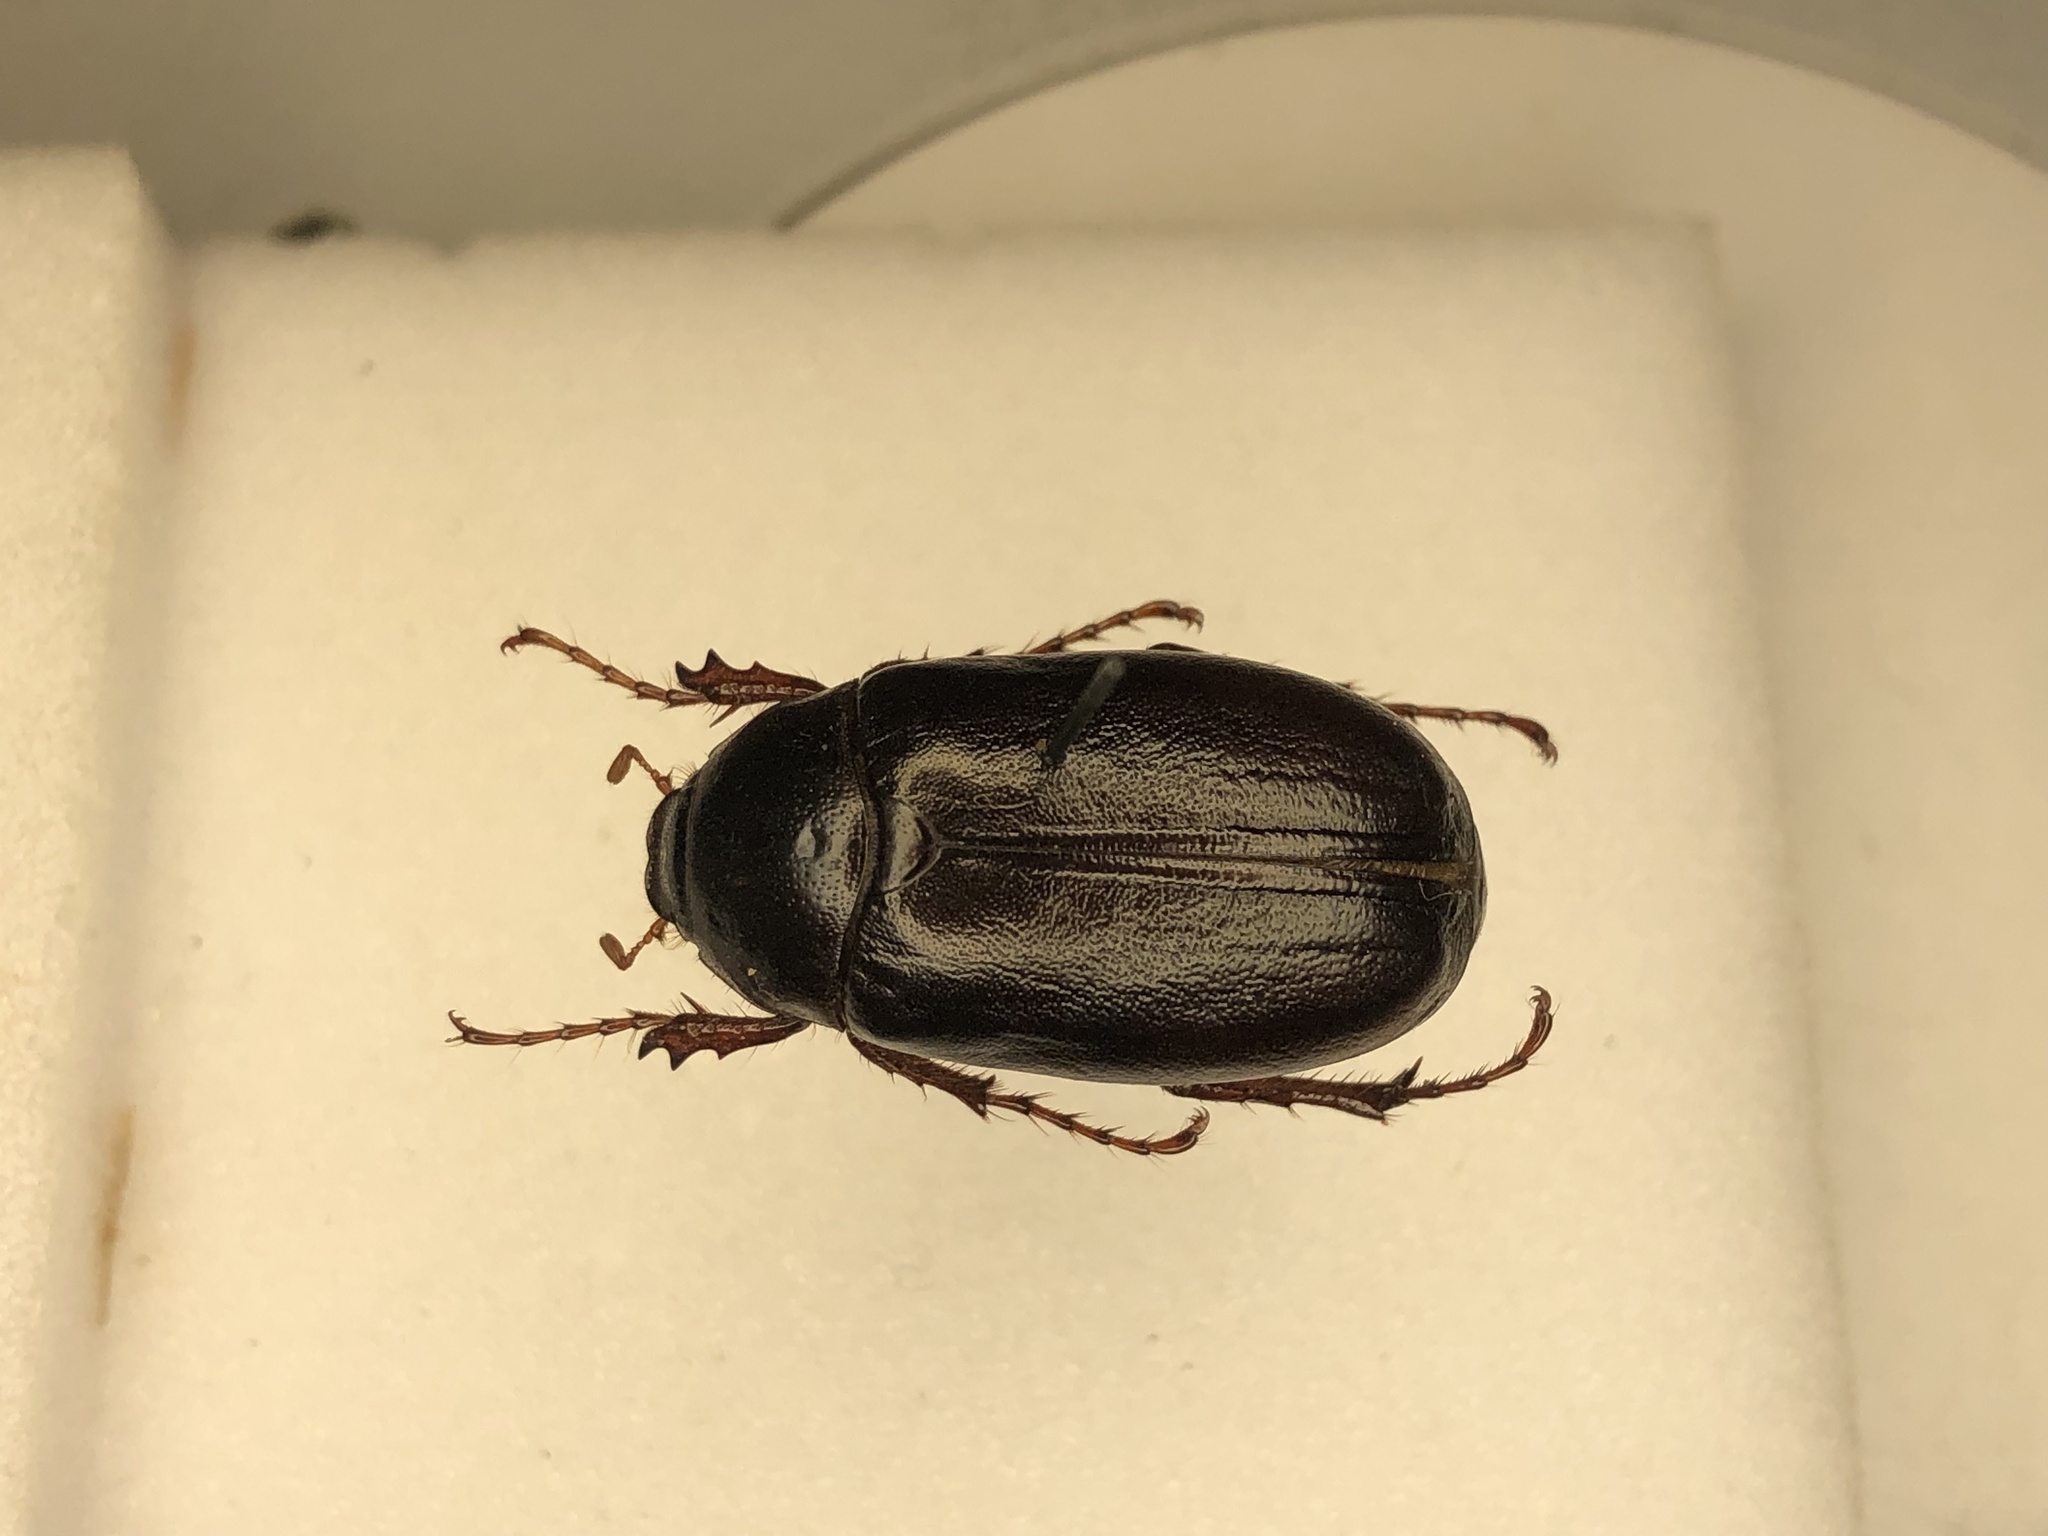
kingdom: Animalia
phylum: Arthropoda
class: Insecta
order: Coleoptera
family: Scarabaeidae
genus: Phyllophaga
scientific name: Phyllophaga drakii
